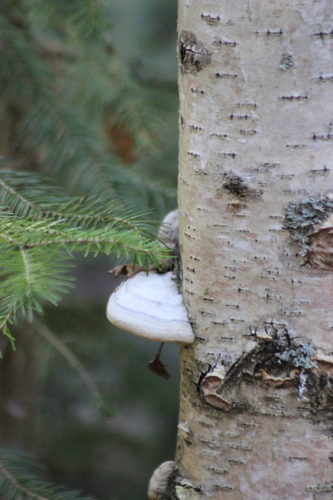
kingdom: Fungi
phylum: Basidiomycota
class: Agaricomycetes
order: Polyporales
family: Polyporaceae
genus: Fomes
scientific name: Fomes fomentarius
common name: Hoof fungus
